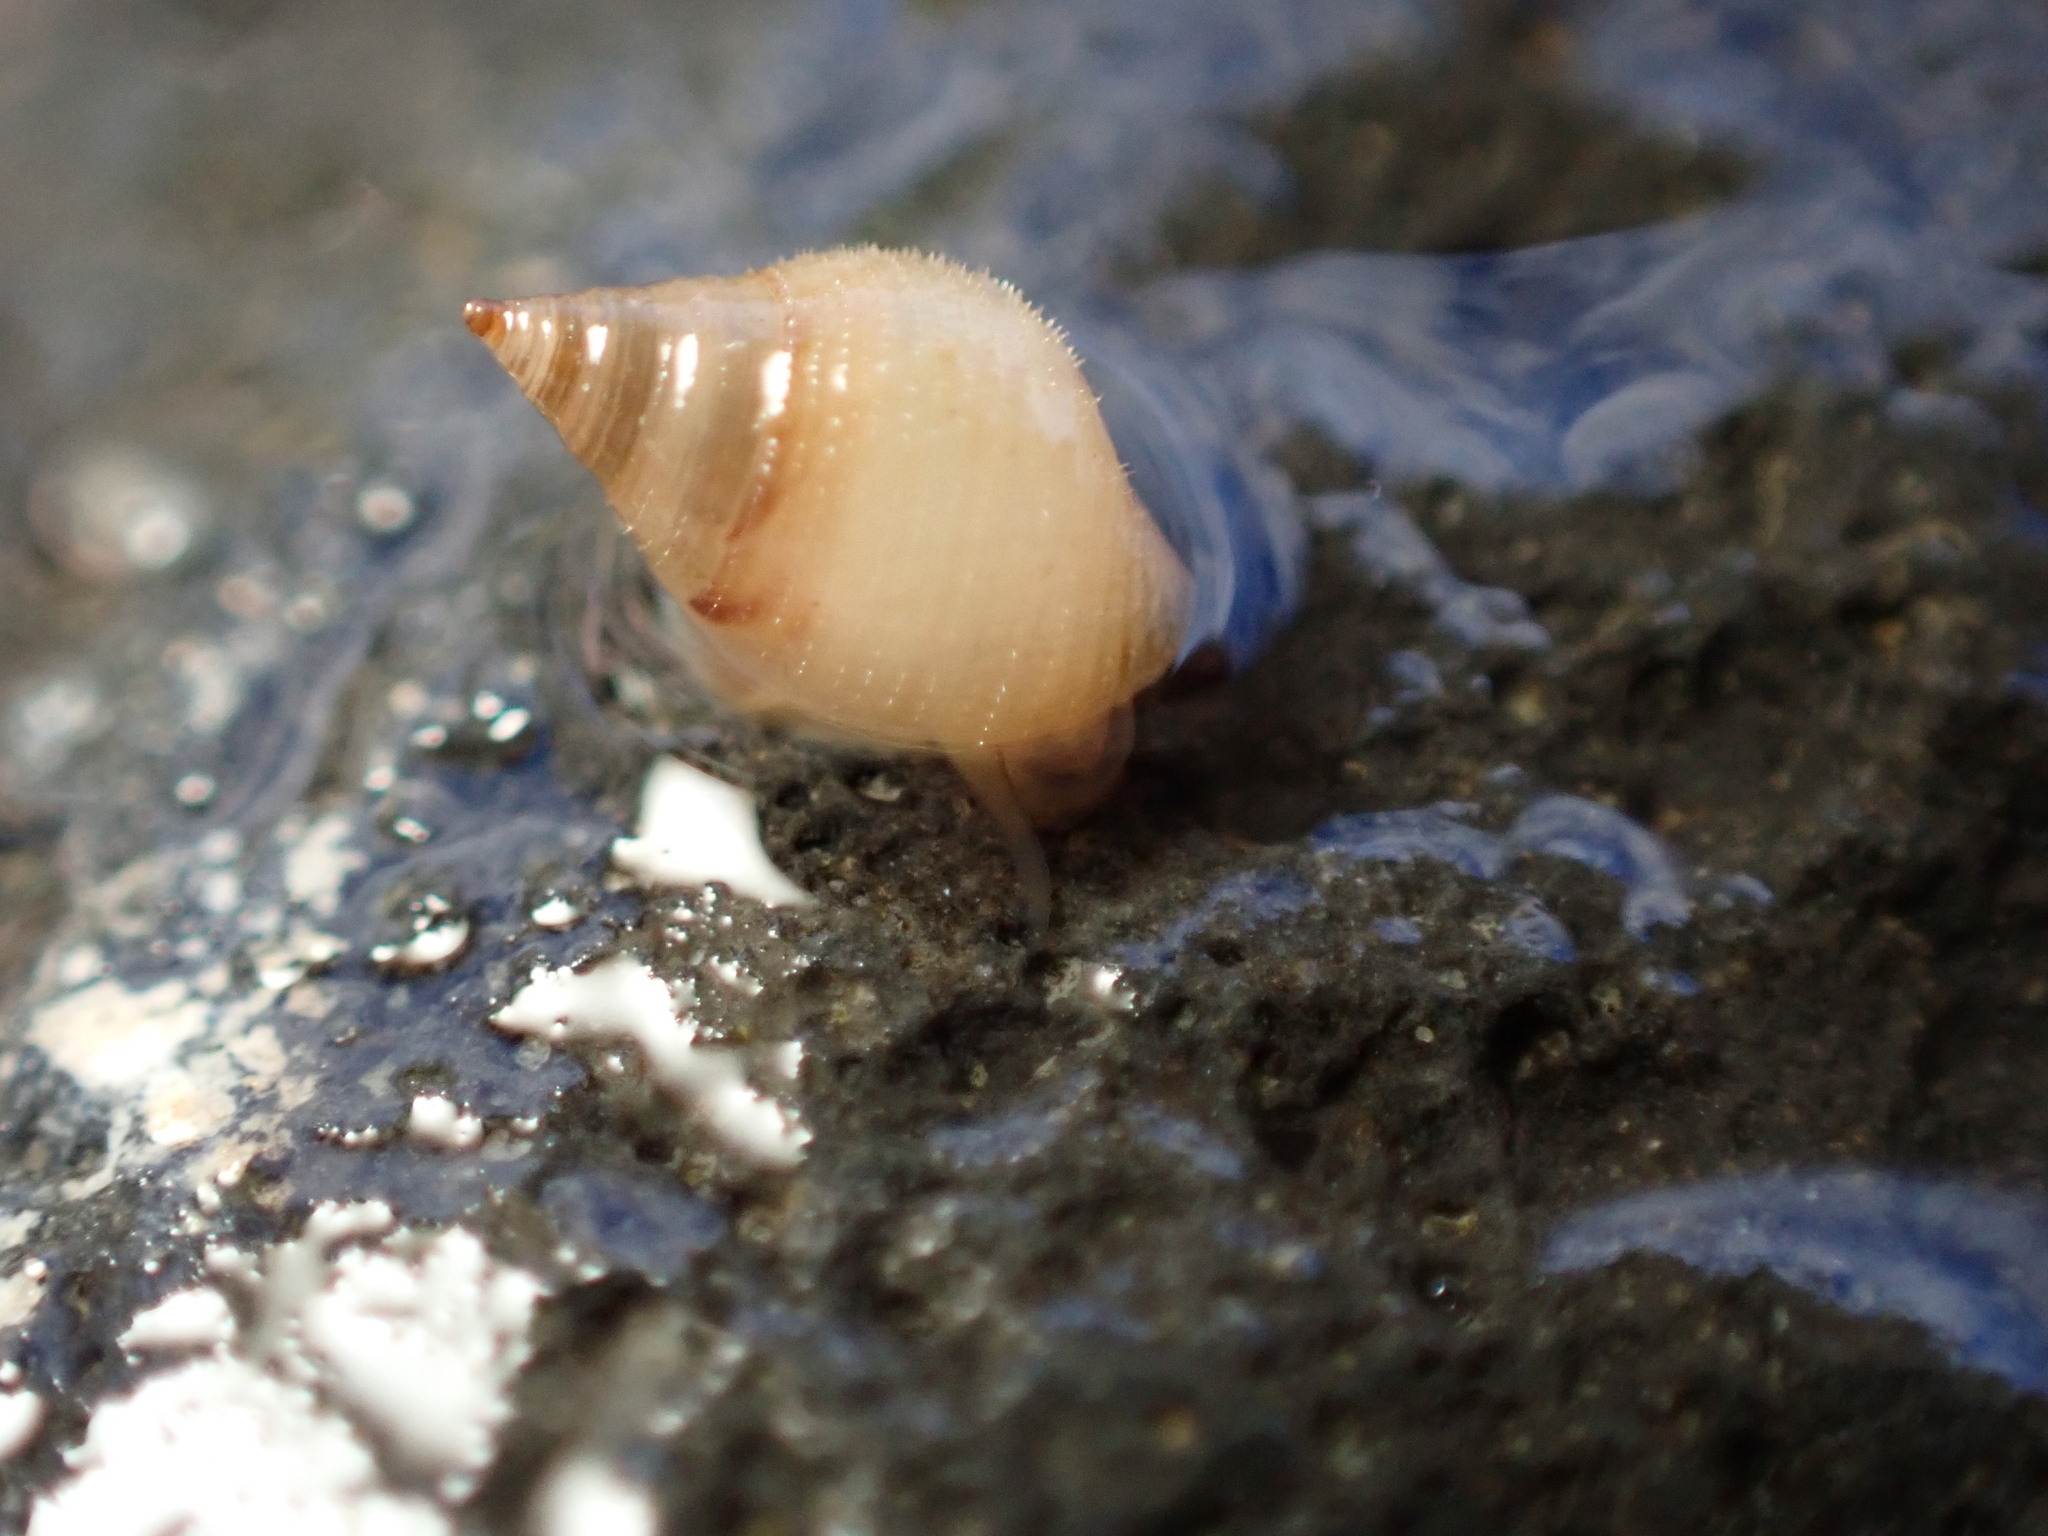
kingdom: Animalia
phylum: Mollusca
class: Gastropoda
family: Planaxidae
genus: Hinea
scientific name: Hinea zonata
